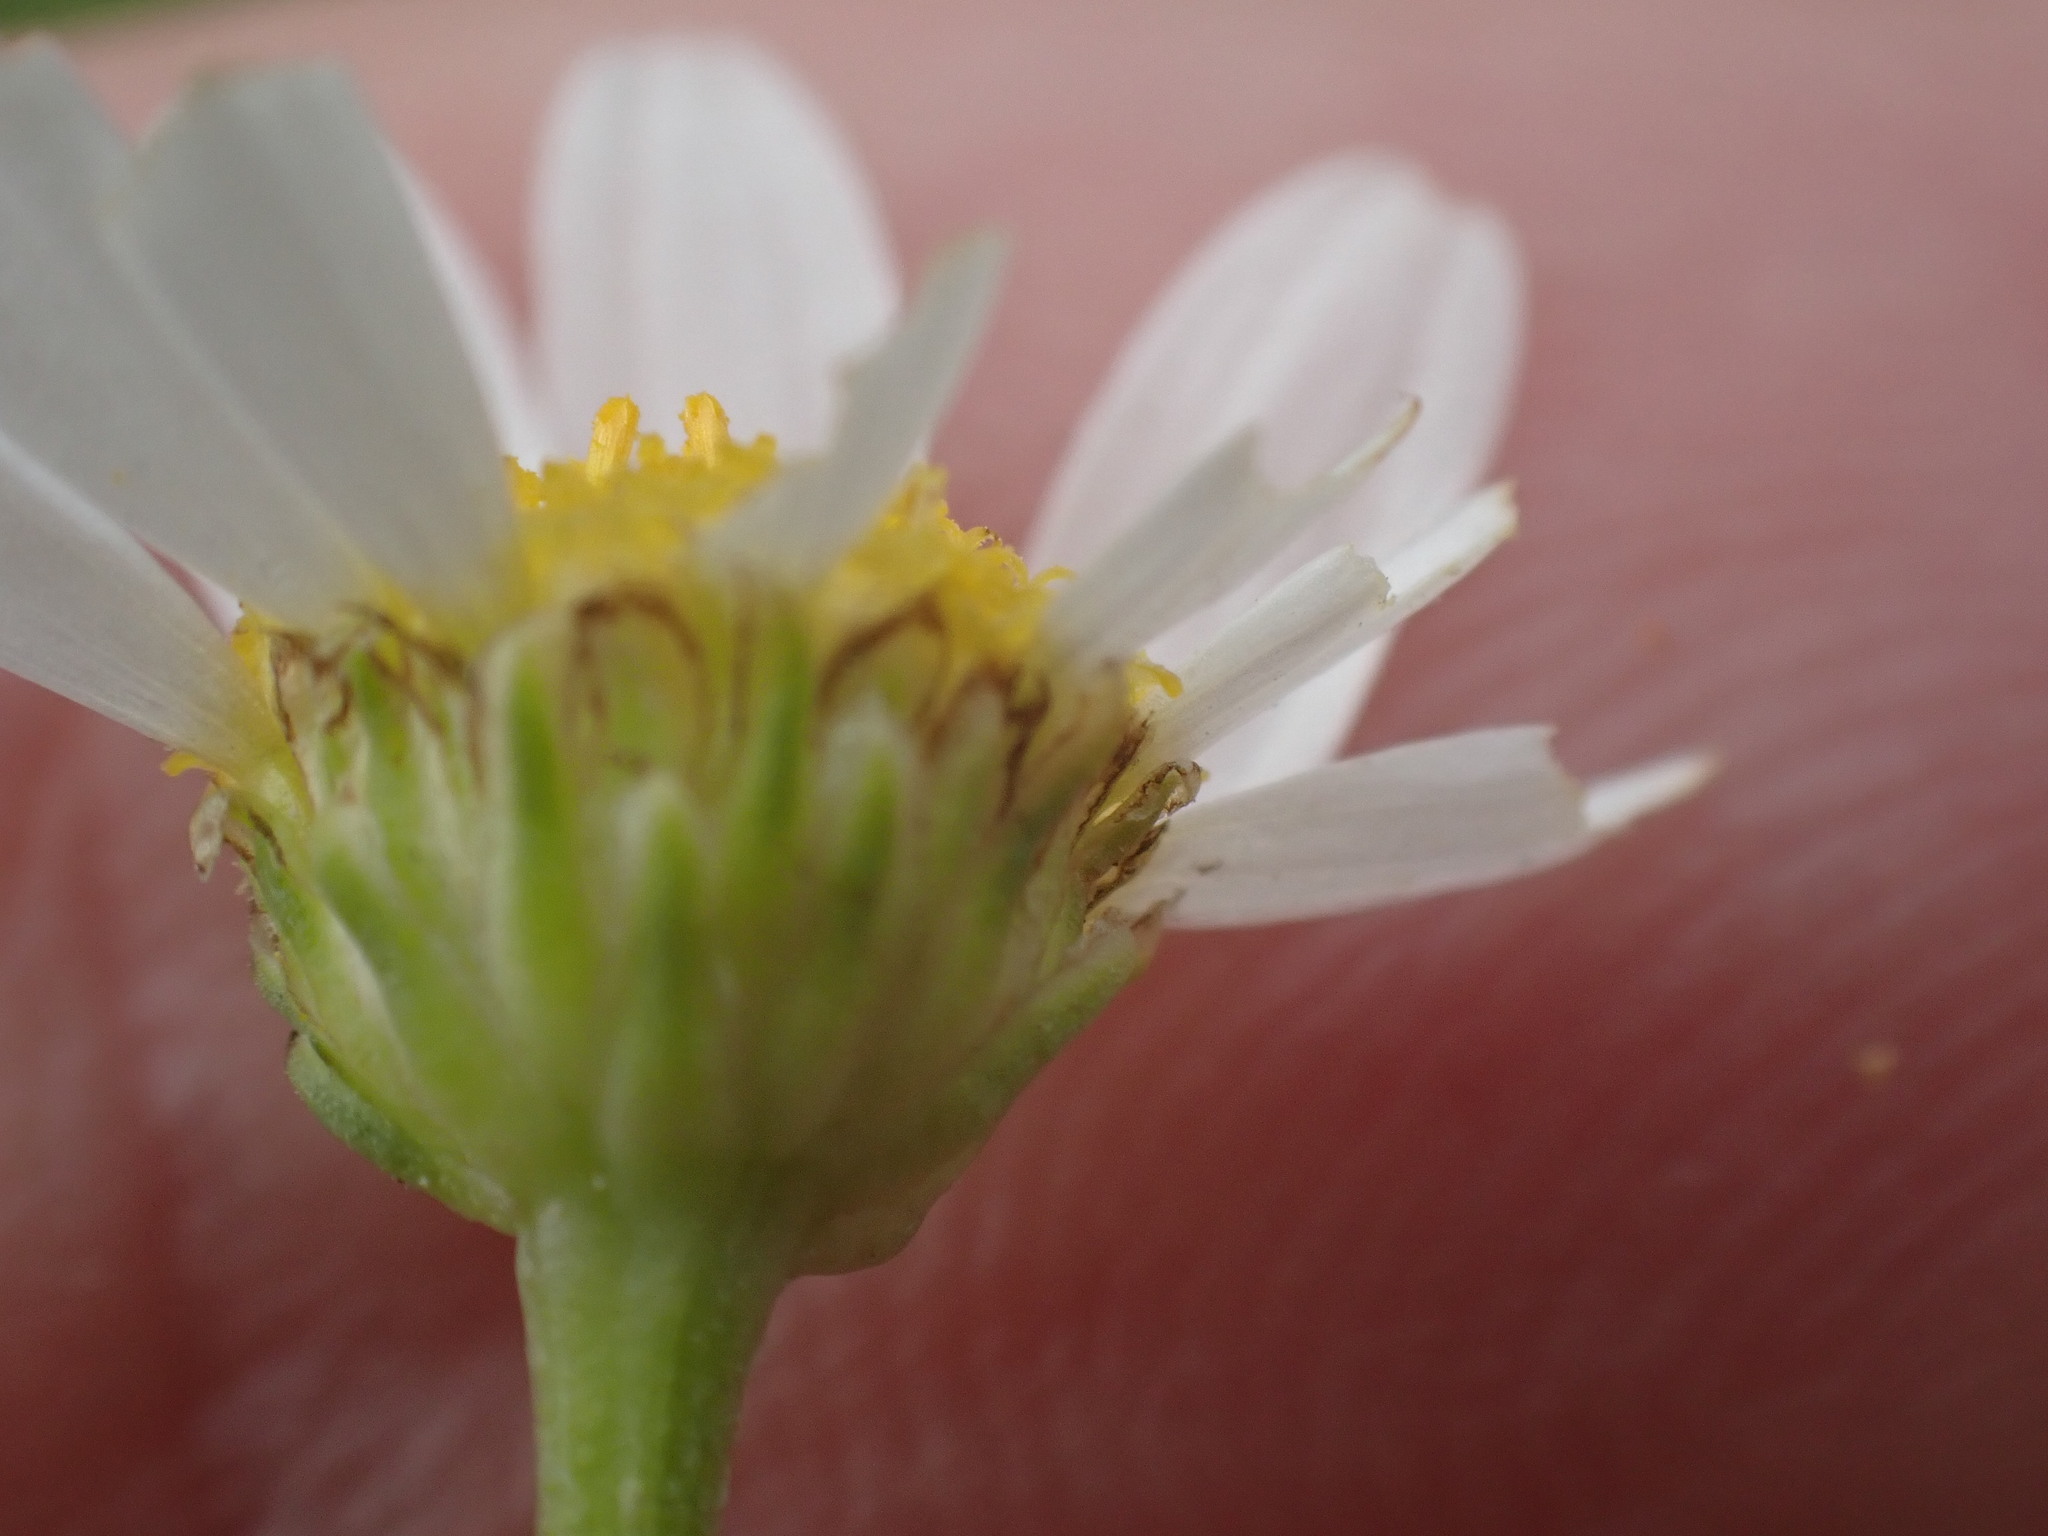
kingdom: Plantae
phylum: Tracheophyta
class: Magnoliopsida
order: Asterales
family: Asteraceae
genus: Tripleurospermum
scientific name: Tripleurospermum inodorum
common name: Scentless mayweed
